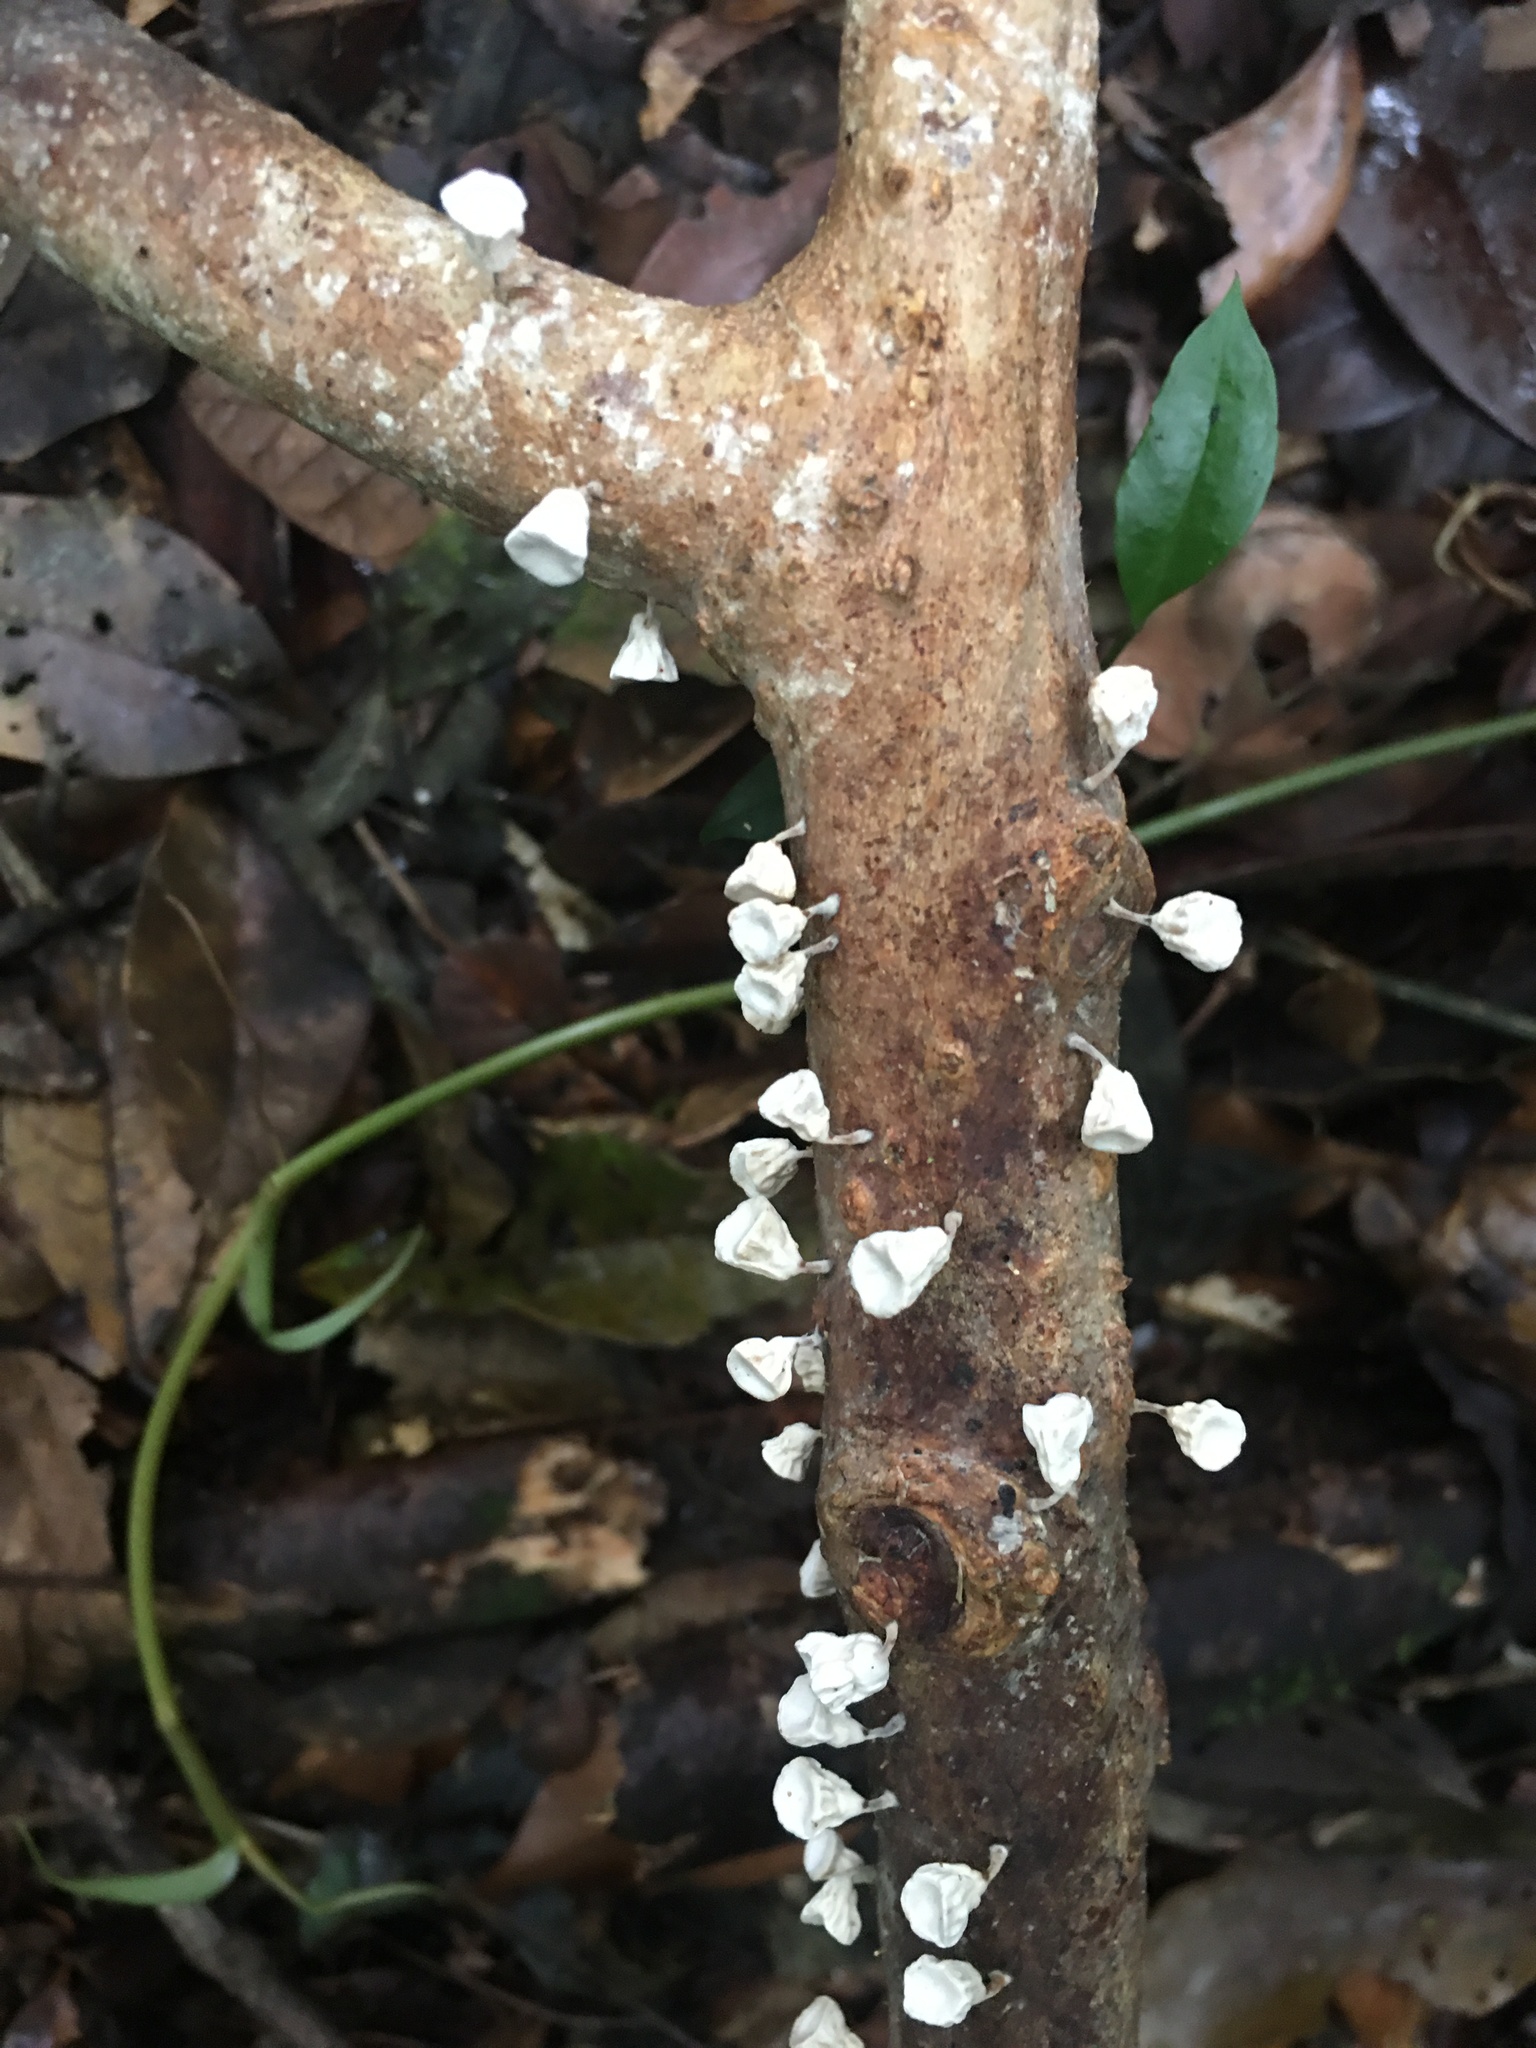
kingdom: Fungi
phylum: Basidiomycota
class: Agaricomycetes
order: Agaricales
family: Omphalotaceae
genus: Gymnopus
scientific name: Gymnopus montagnei
